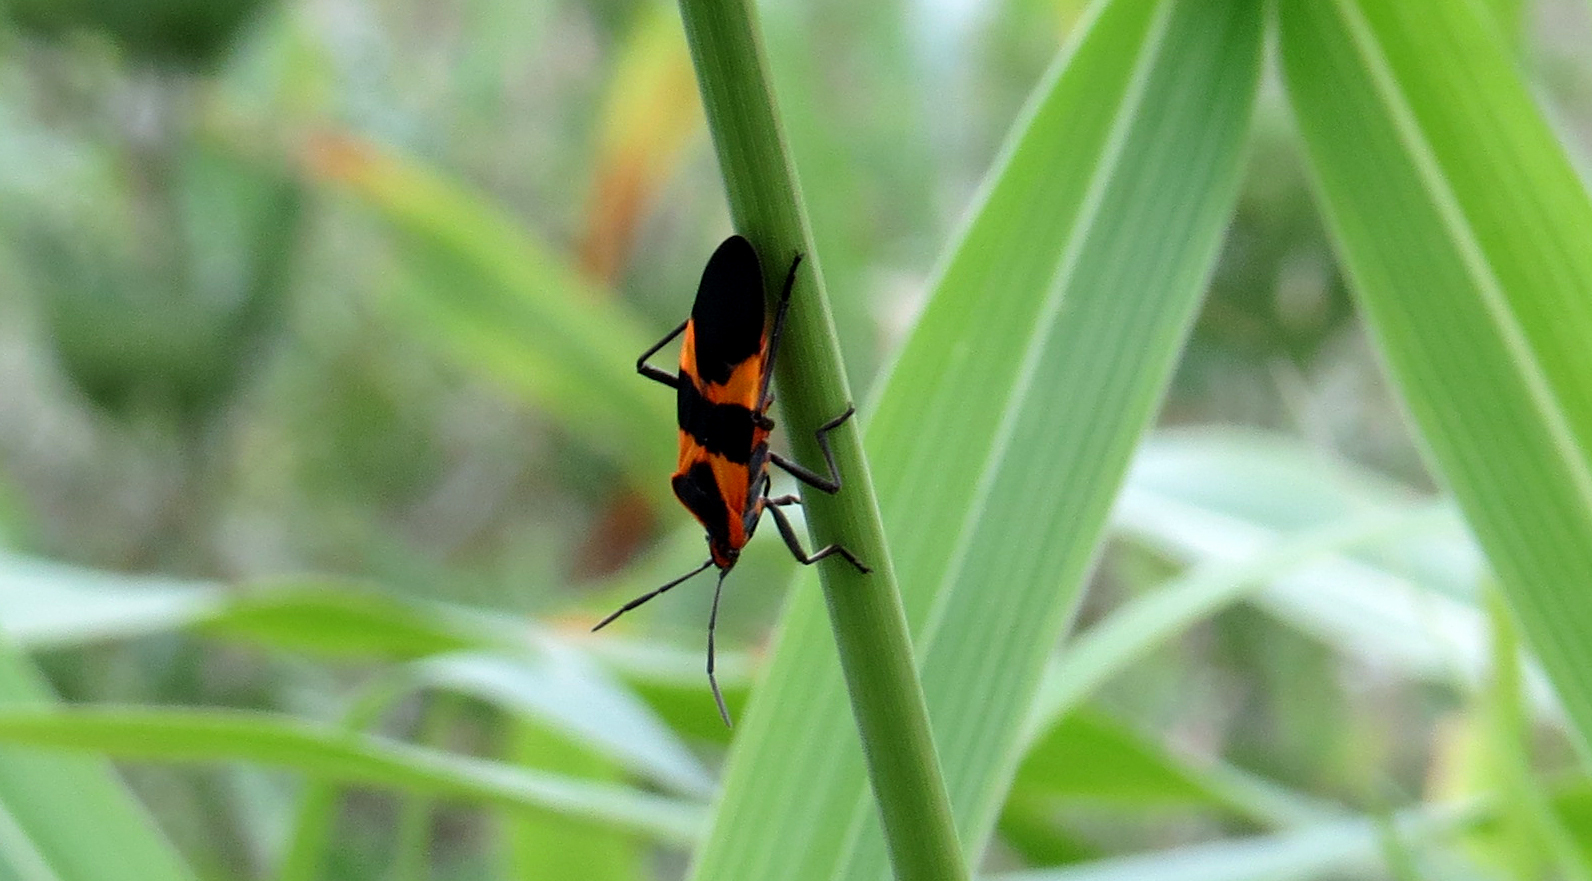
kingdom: Animalia
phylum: Arthropoda
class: Insecta
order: Hemiptera
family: Lygaeidae
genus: Oncopeltus
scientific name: Oncopeltus fasciatus
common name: Large milkweed bug
